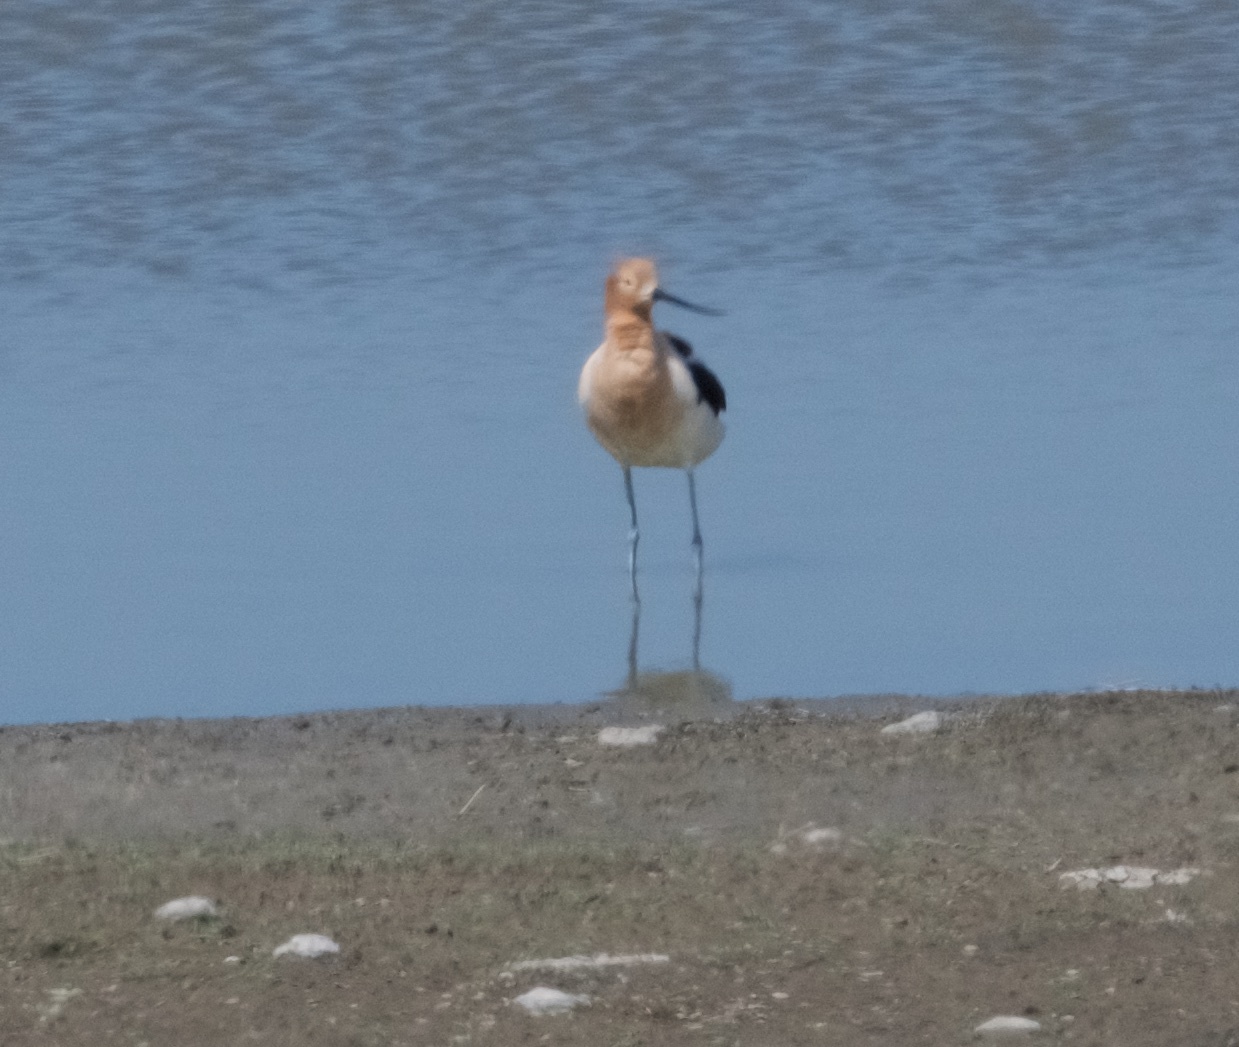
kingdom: Animalia
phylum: Chordata
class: Aves
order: Charadriiformes
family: Recurvirostridae
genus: Recurvirostra
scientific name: Recurvirostra americana
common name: American avocet
